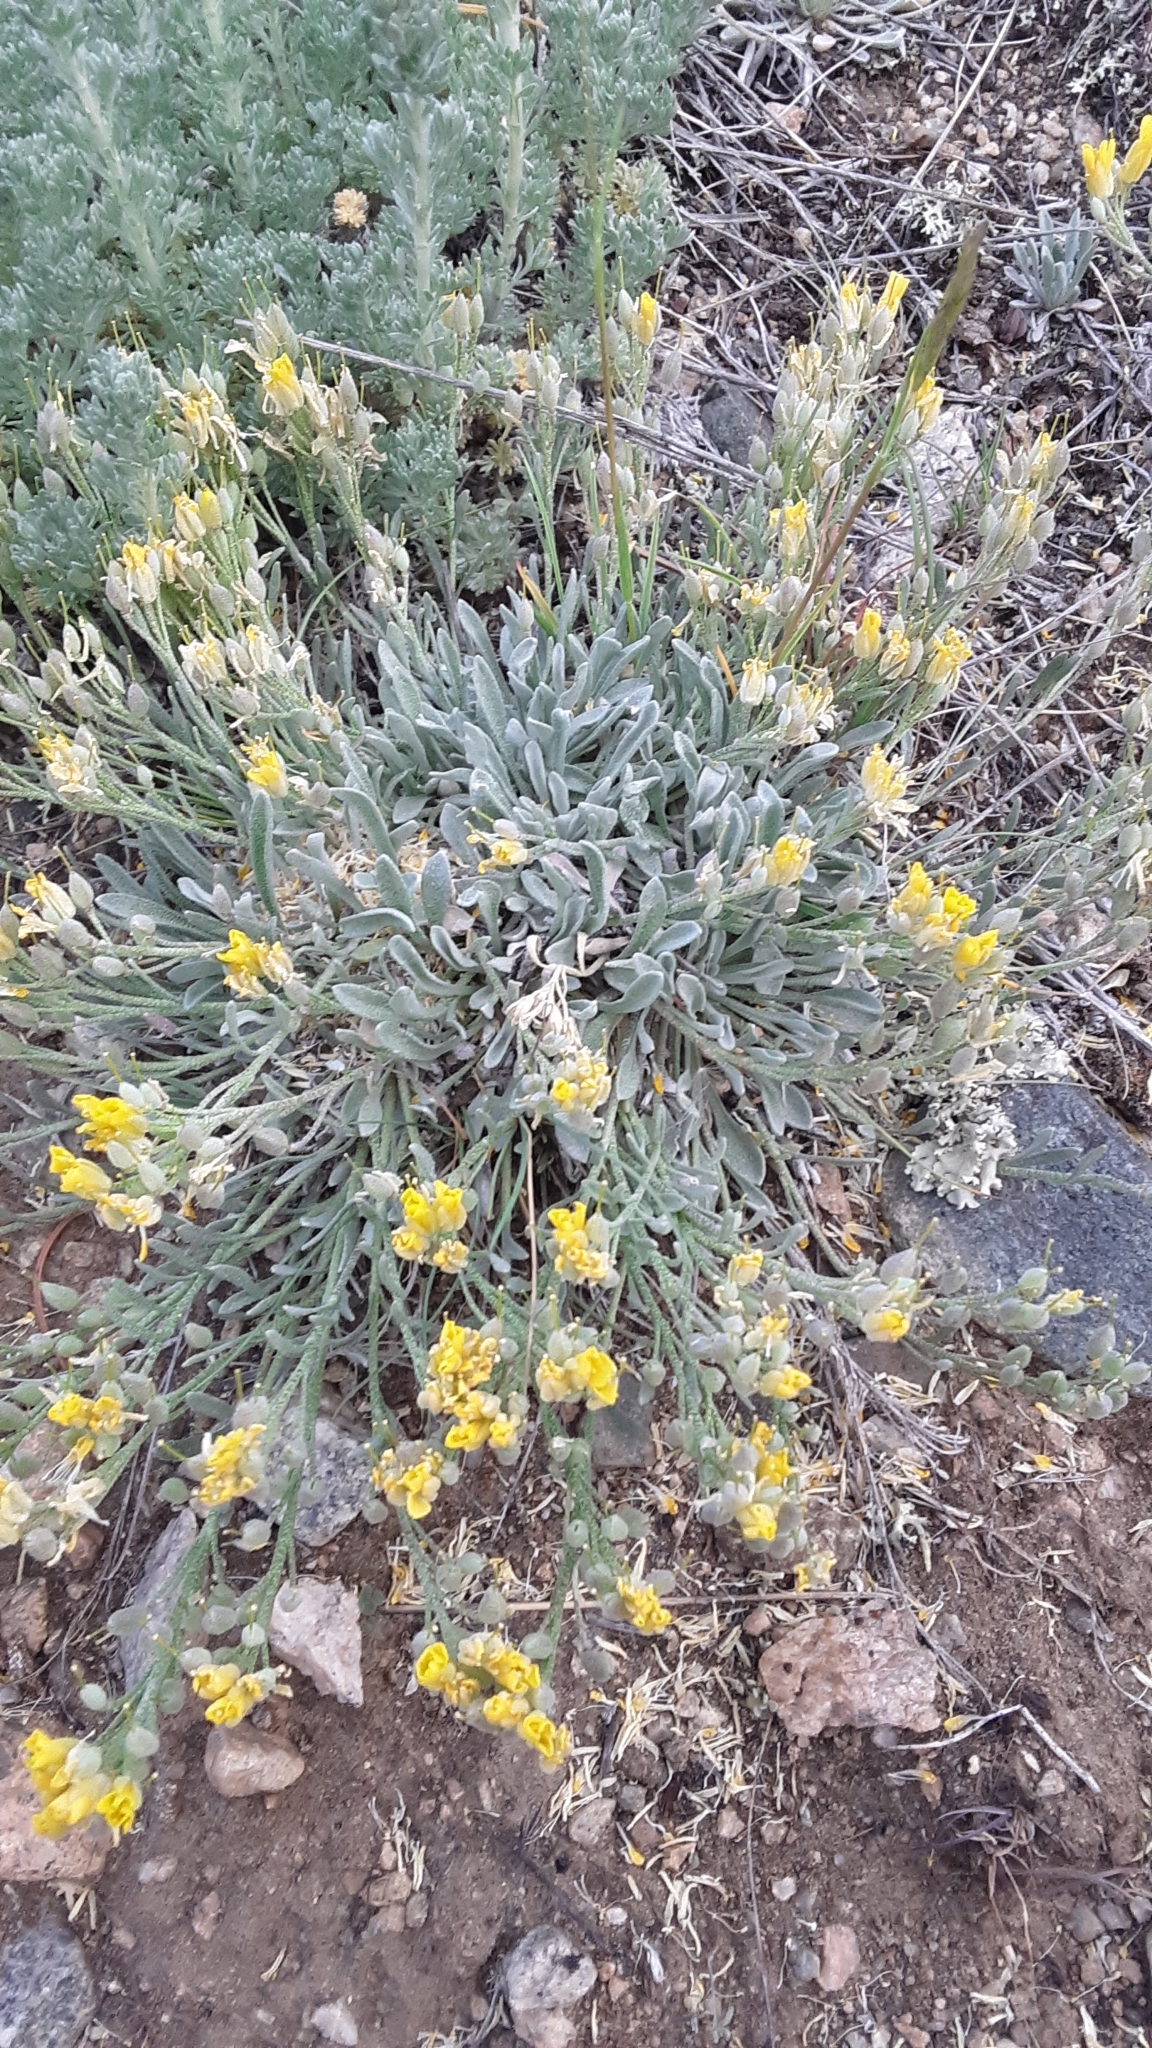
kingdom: Plantae
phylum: Tracheophyta
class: Magnoliopsida
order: Brassicales
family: Brassicaceae
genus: Physaria
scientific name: Physaria spatulata
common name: Alpine bladderpod
